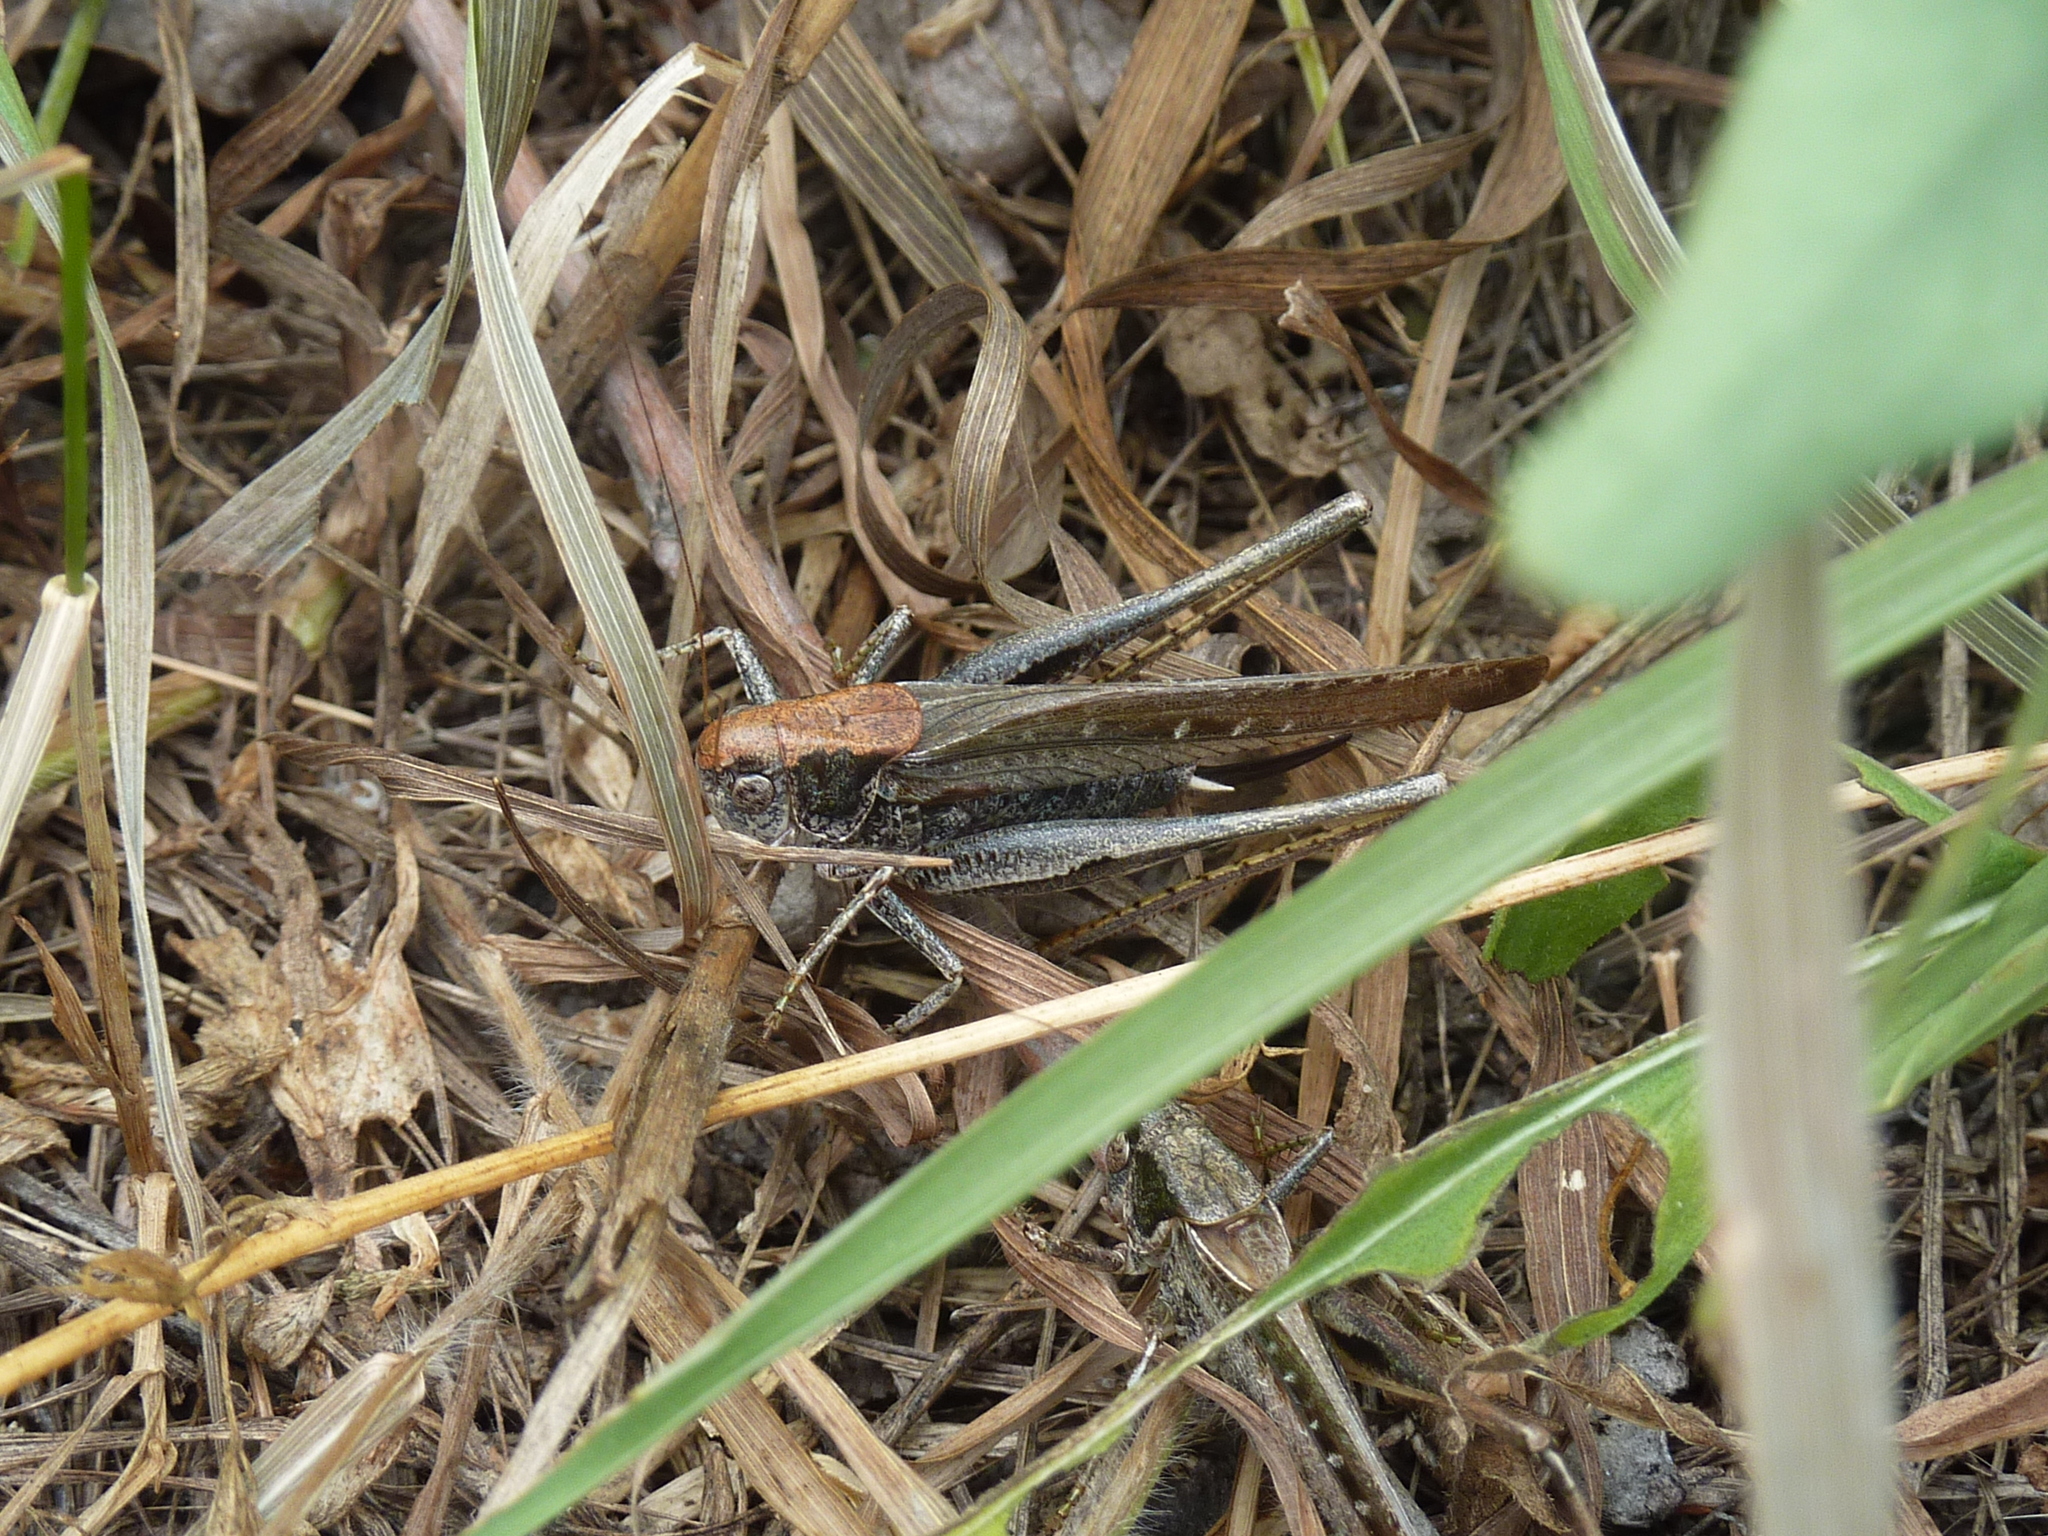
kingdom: Animalia
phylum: Arthropoda
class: Insecta
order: Orthoptera
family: Tettigoniidae
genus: Platycleis
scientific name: Platycleis grisea
